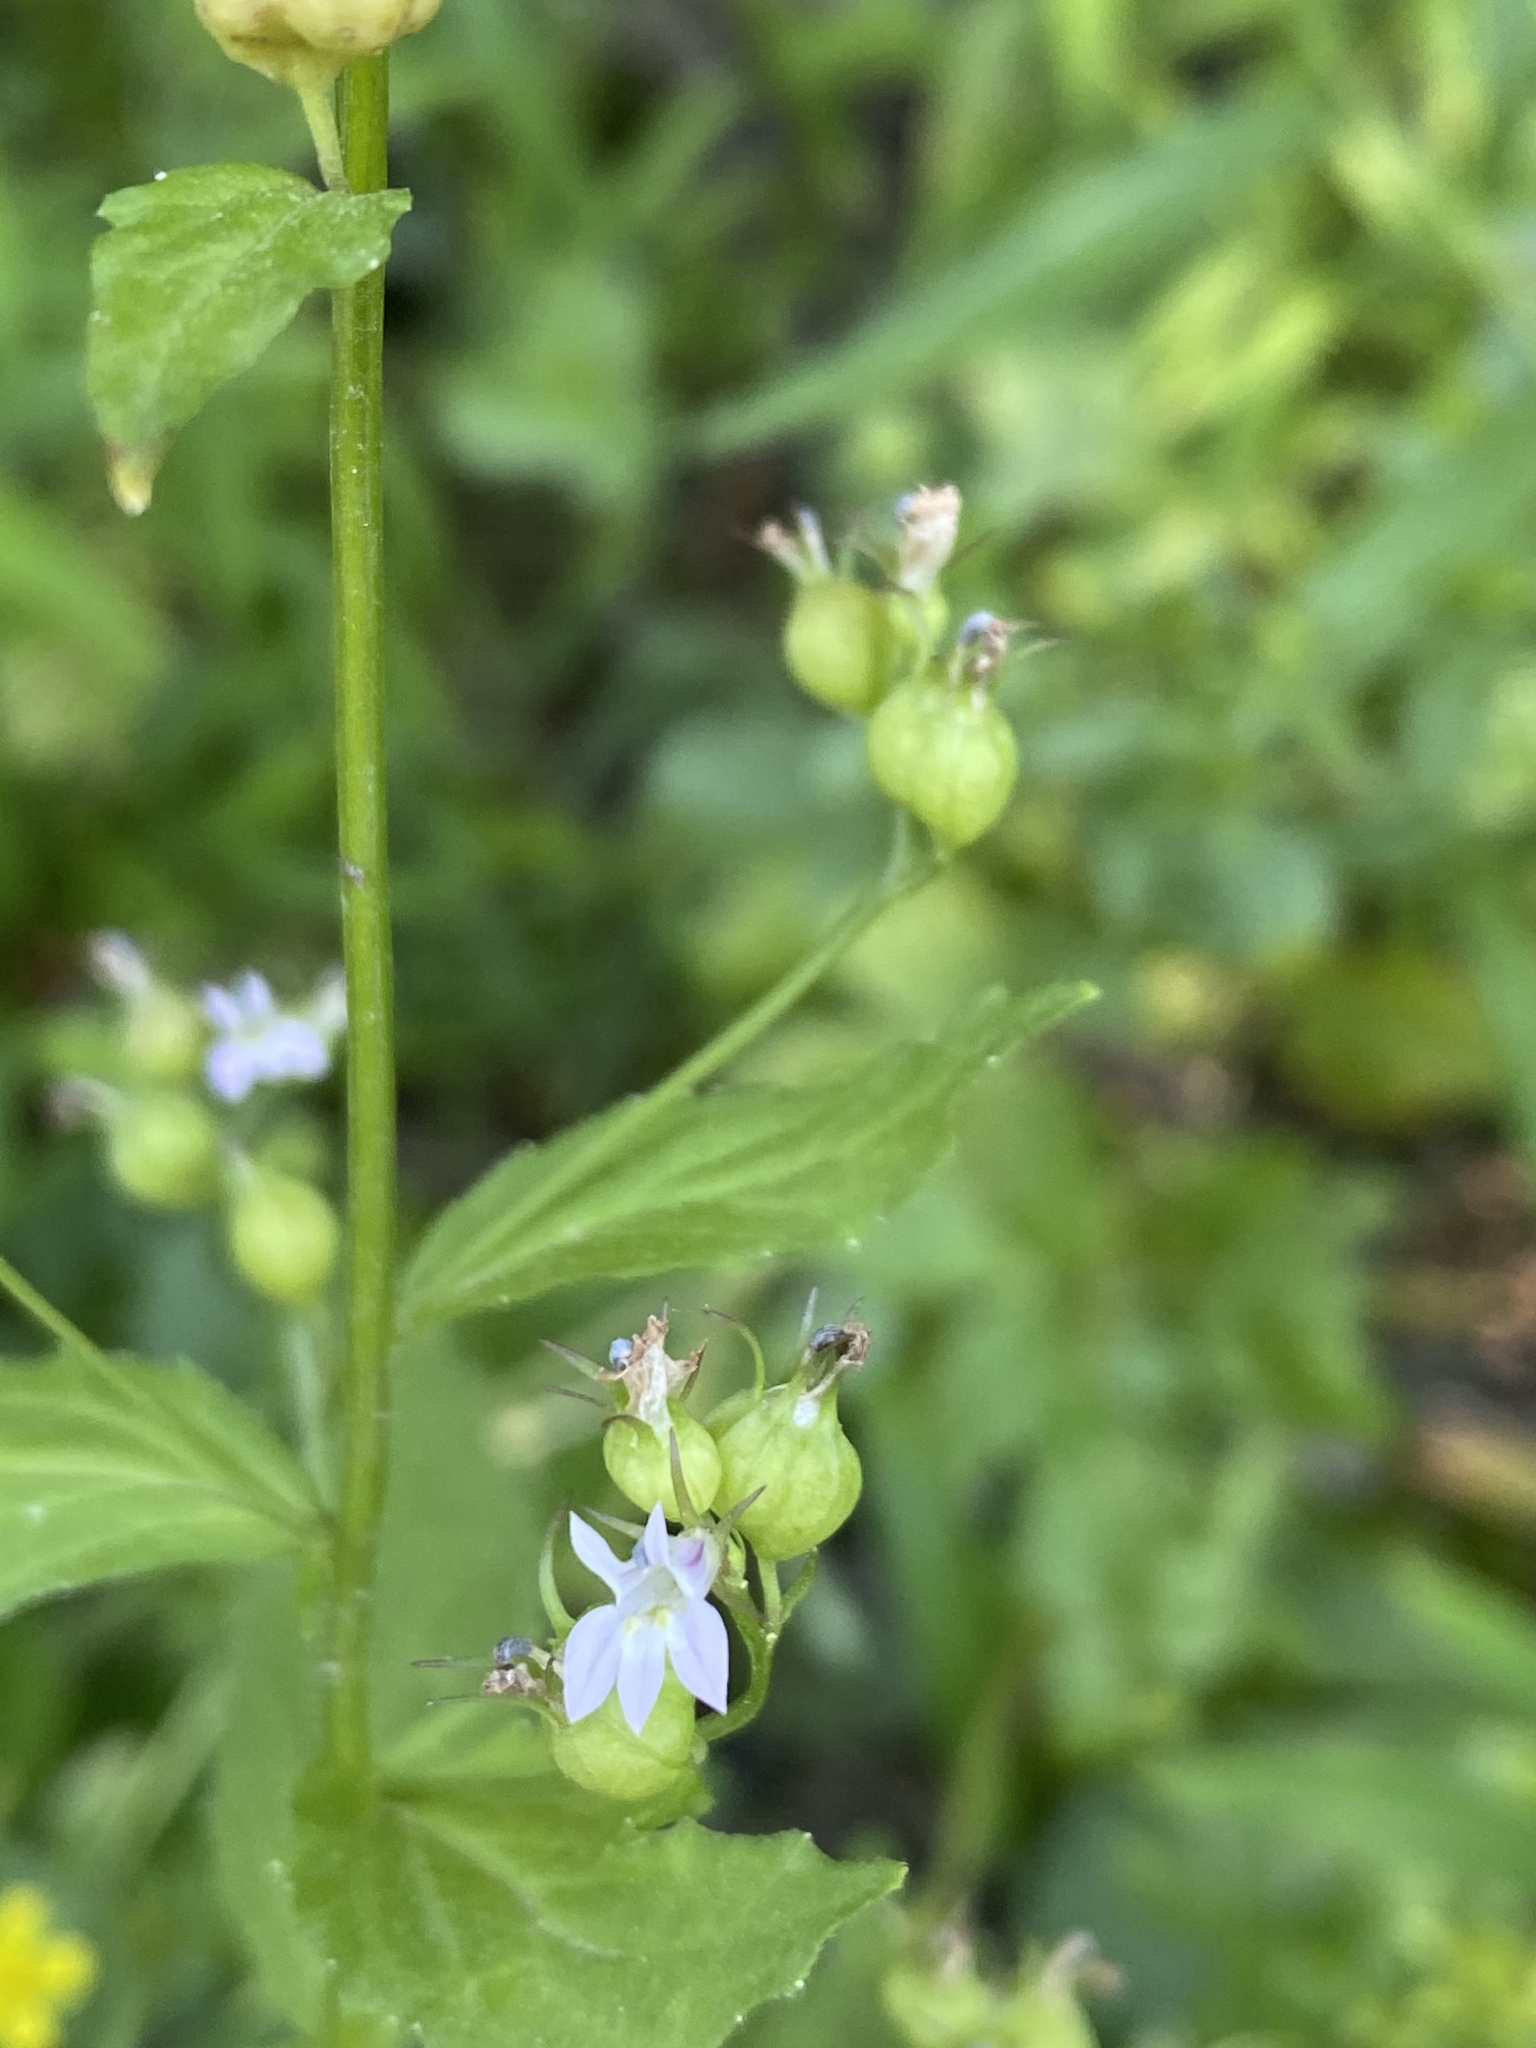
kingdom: Plantae
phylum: Tracheophyta
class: Magnoliopsida
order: Asterales
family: Campanulaceae
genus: Lobelia
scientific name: Lobelia inflata
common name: Indian tobacco
